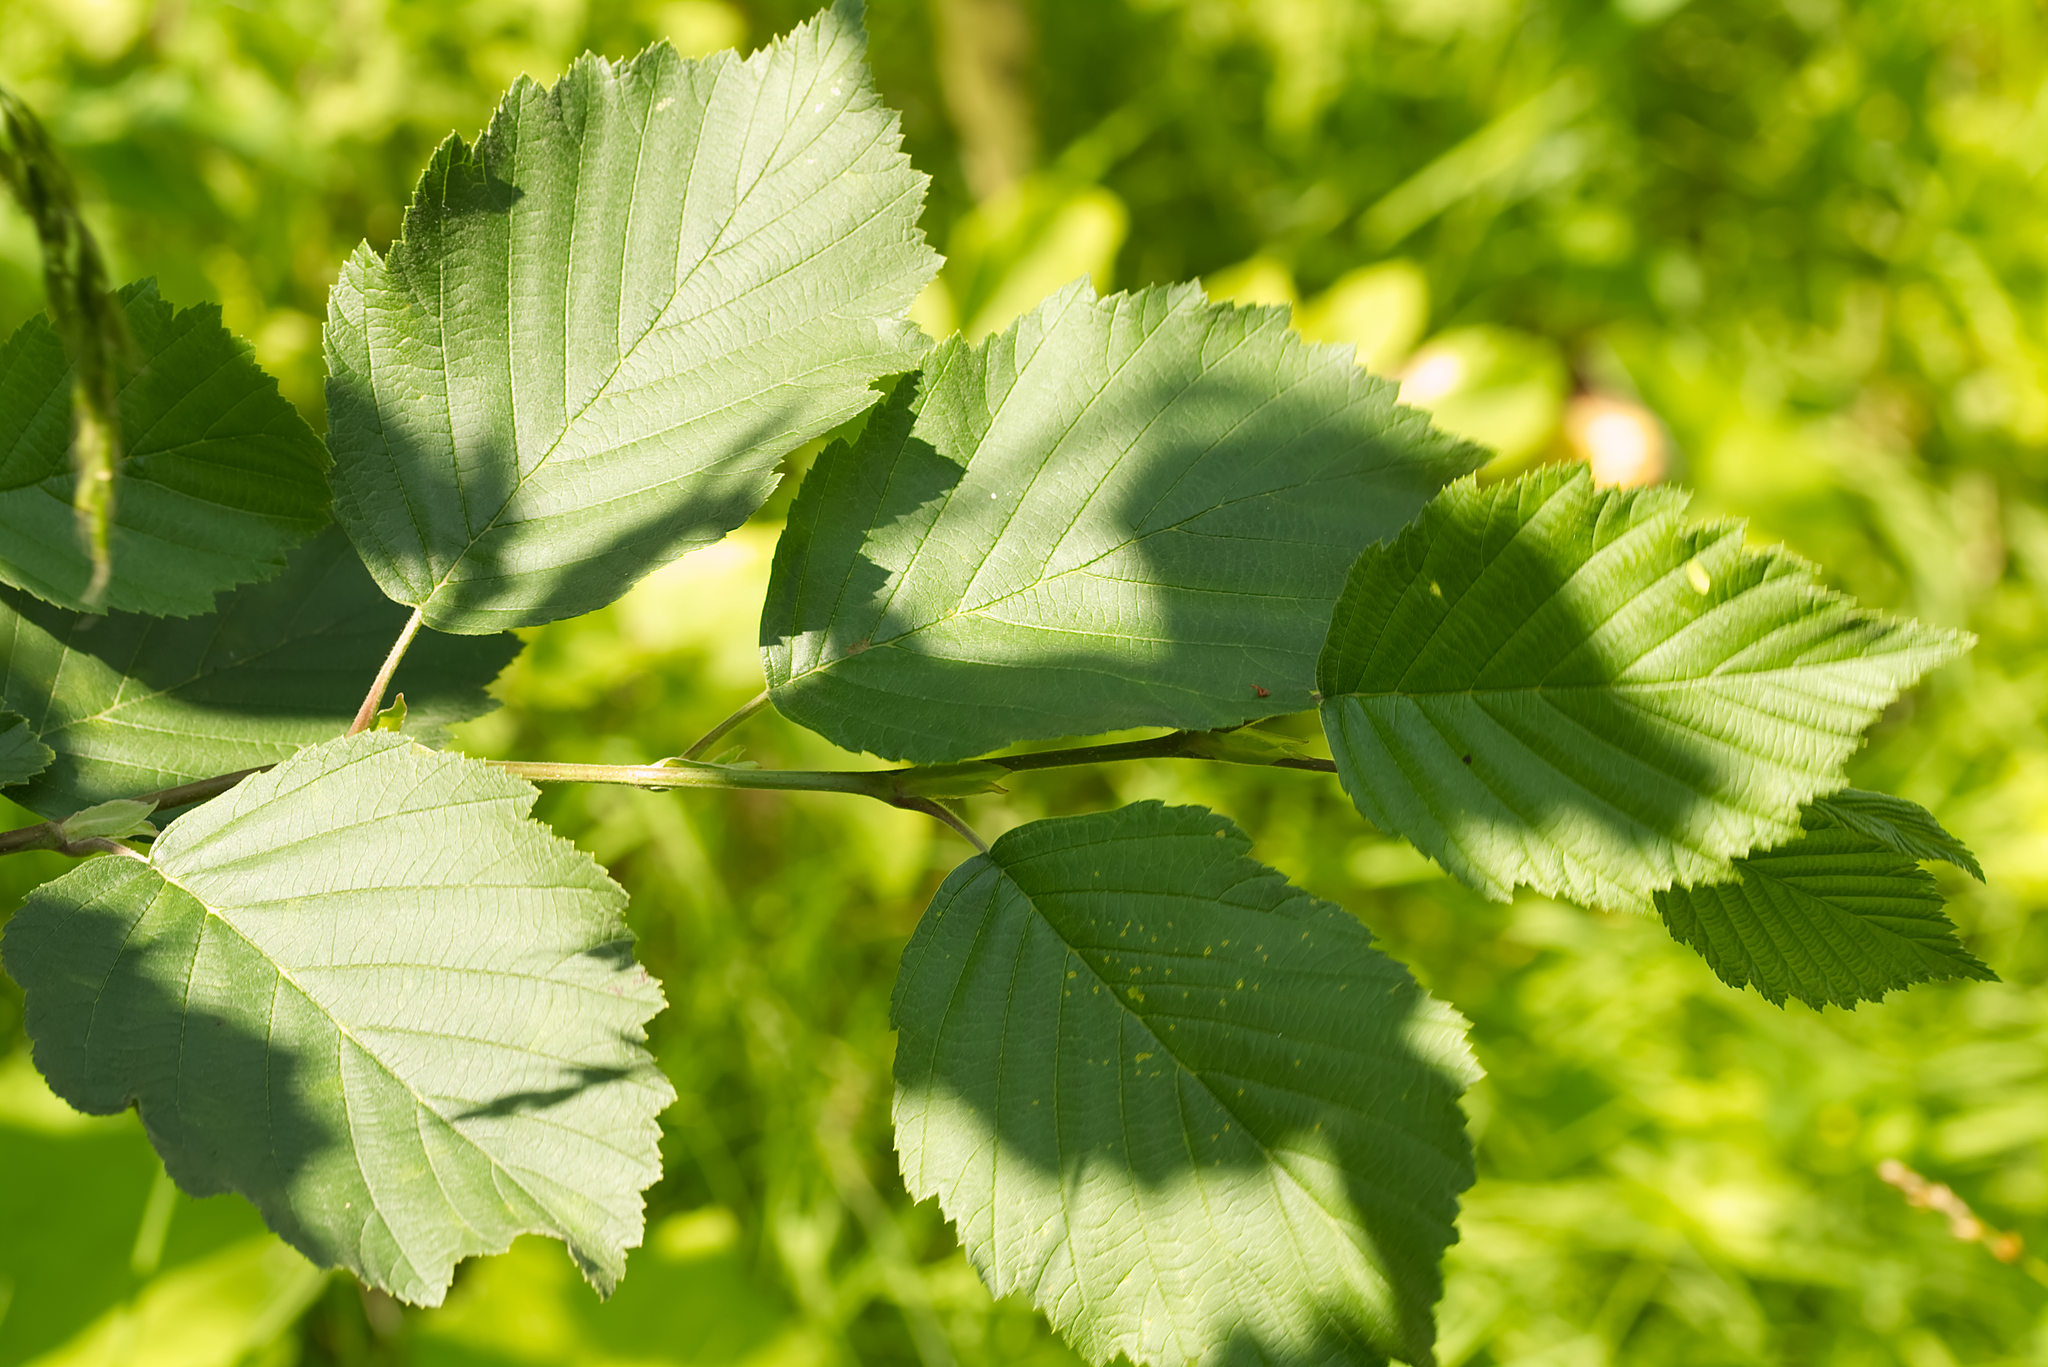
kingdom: Plantae
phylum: Tracheophyta
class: Magnoliopsida
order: Fagales
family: Betulaceae
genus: Alnus
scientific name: Alnus incana
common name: Grey alder
